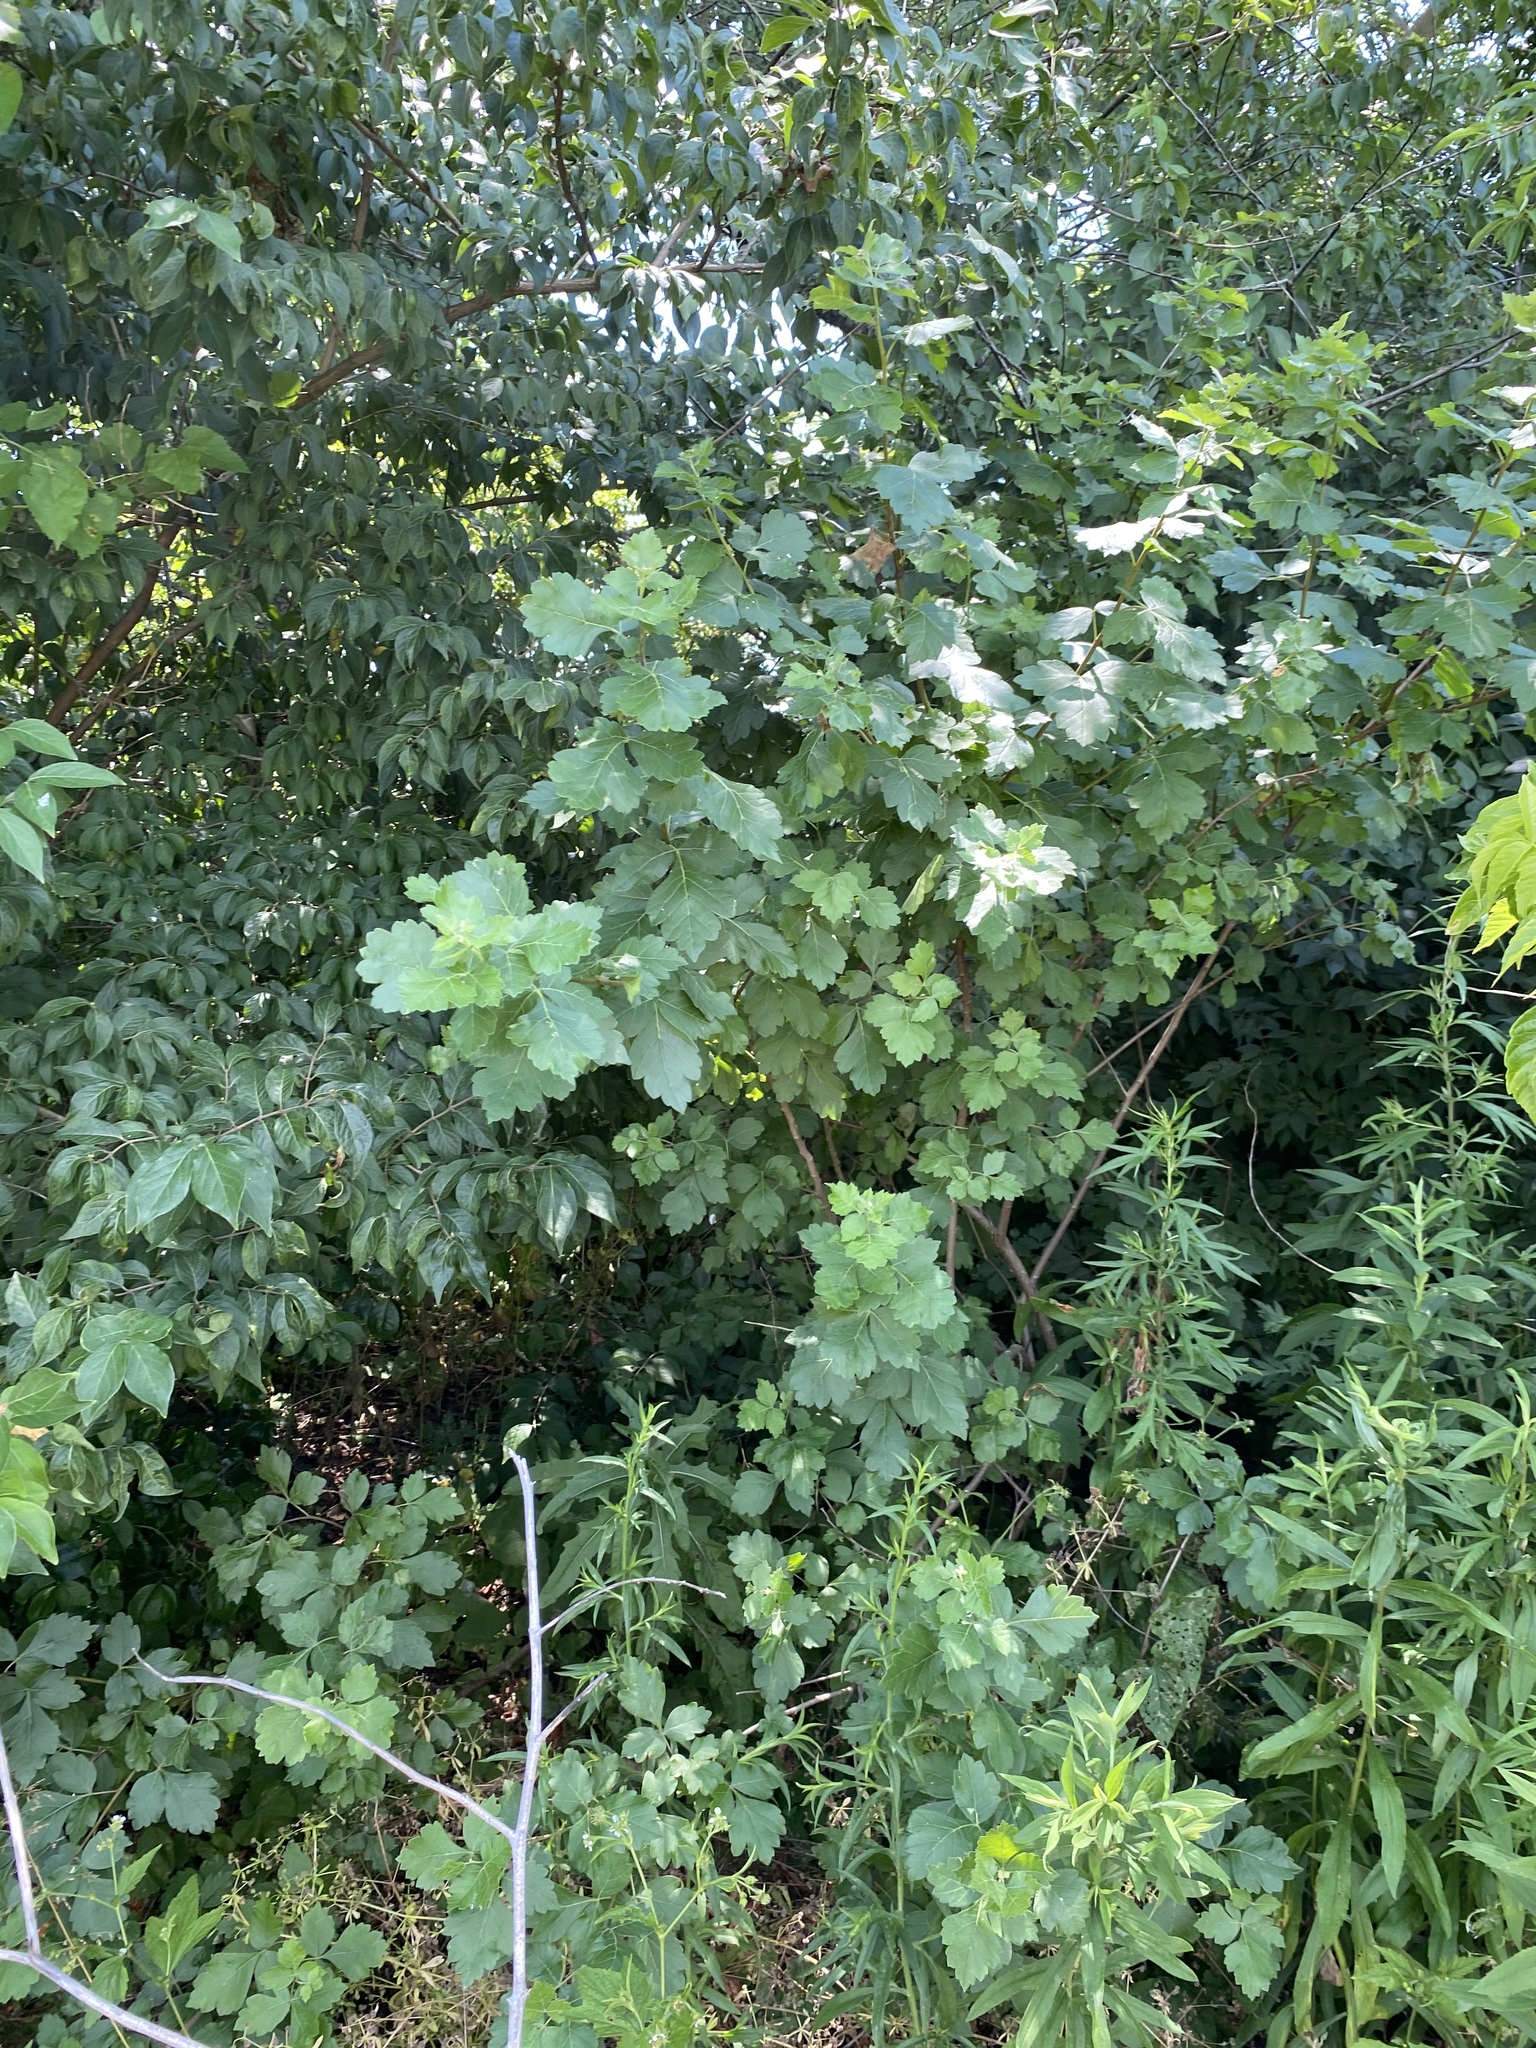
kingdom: Plantae
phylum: Tracheophyta
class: Magnoliopsida
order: Sapindales
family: Anacardiaceae
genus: Rhus
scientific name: Rhus aromatica
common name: Aromatic sumac
